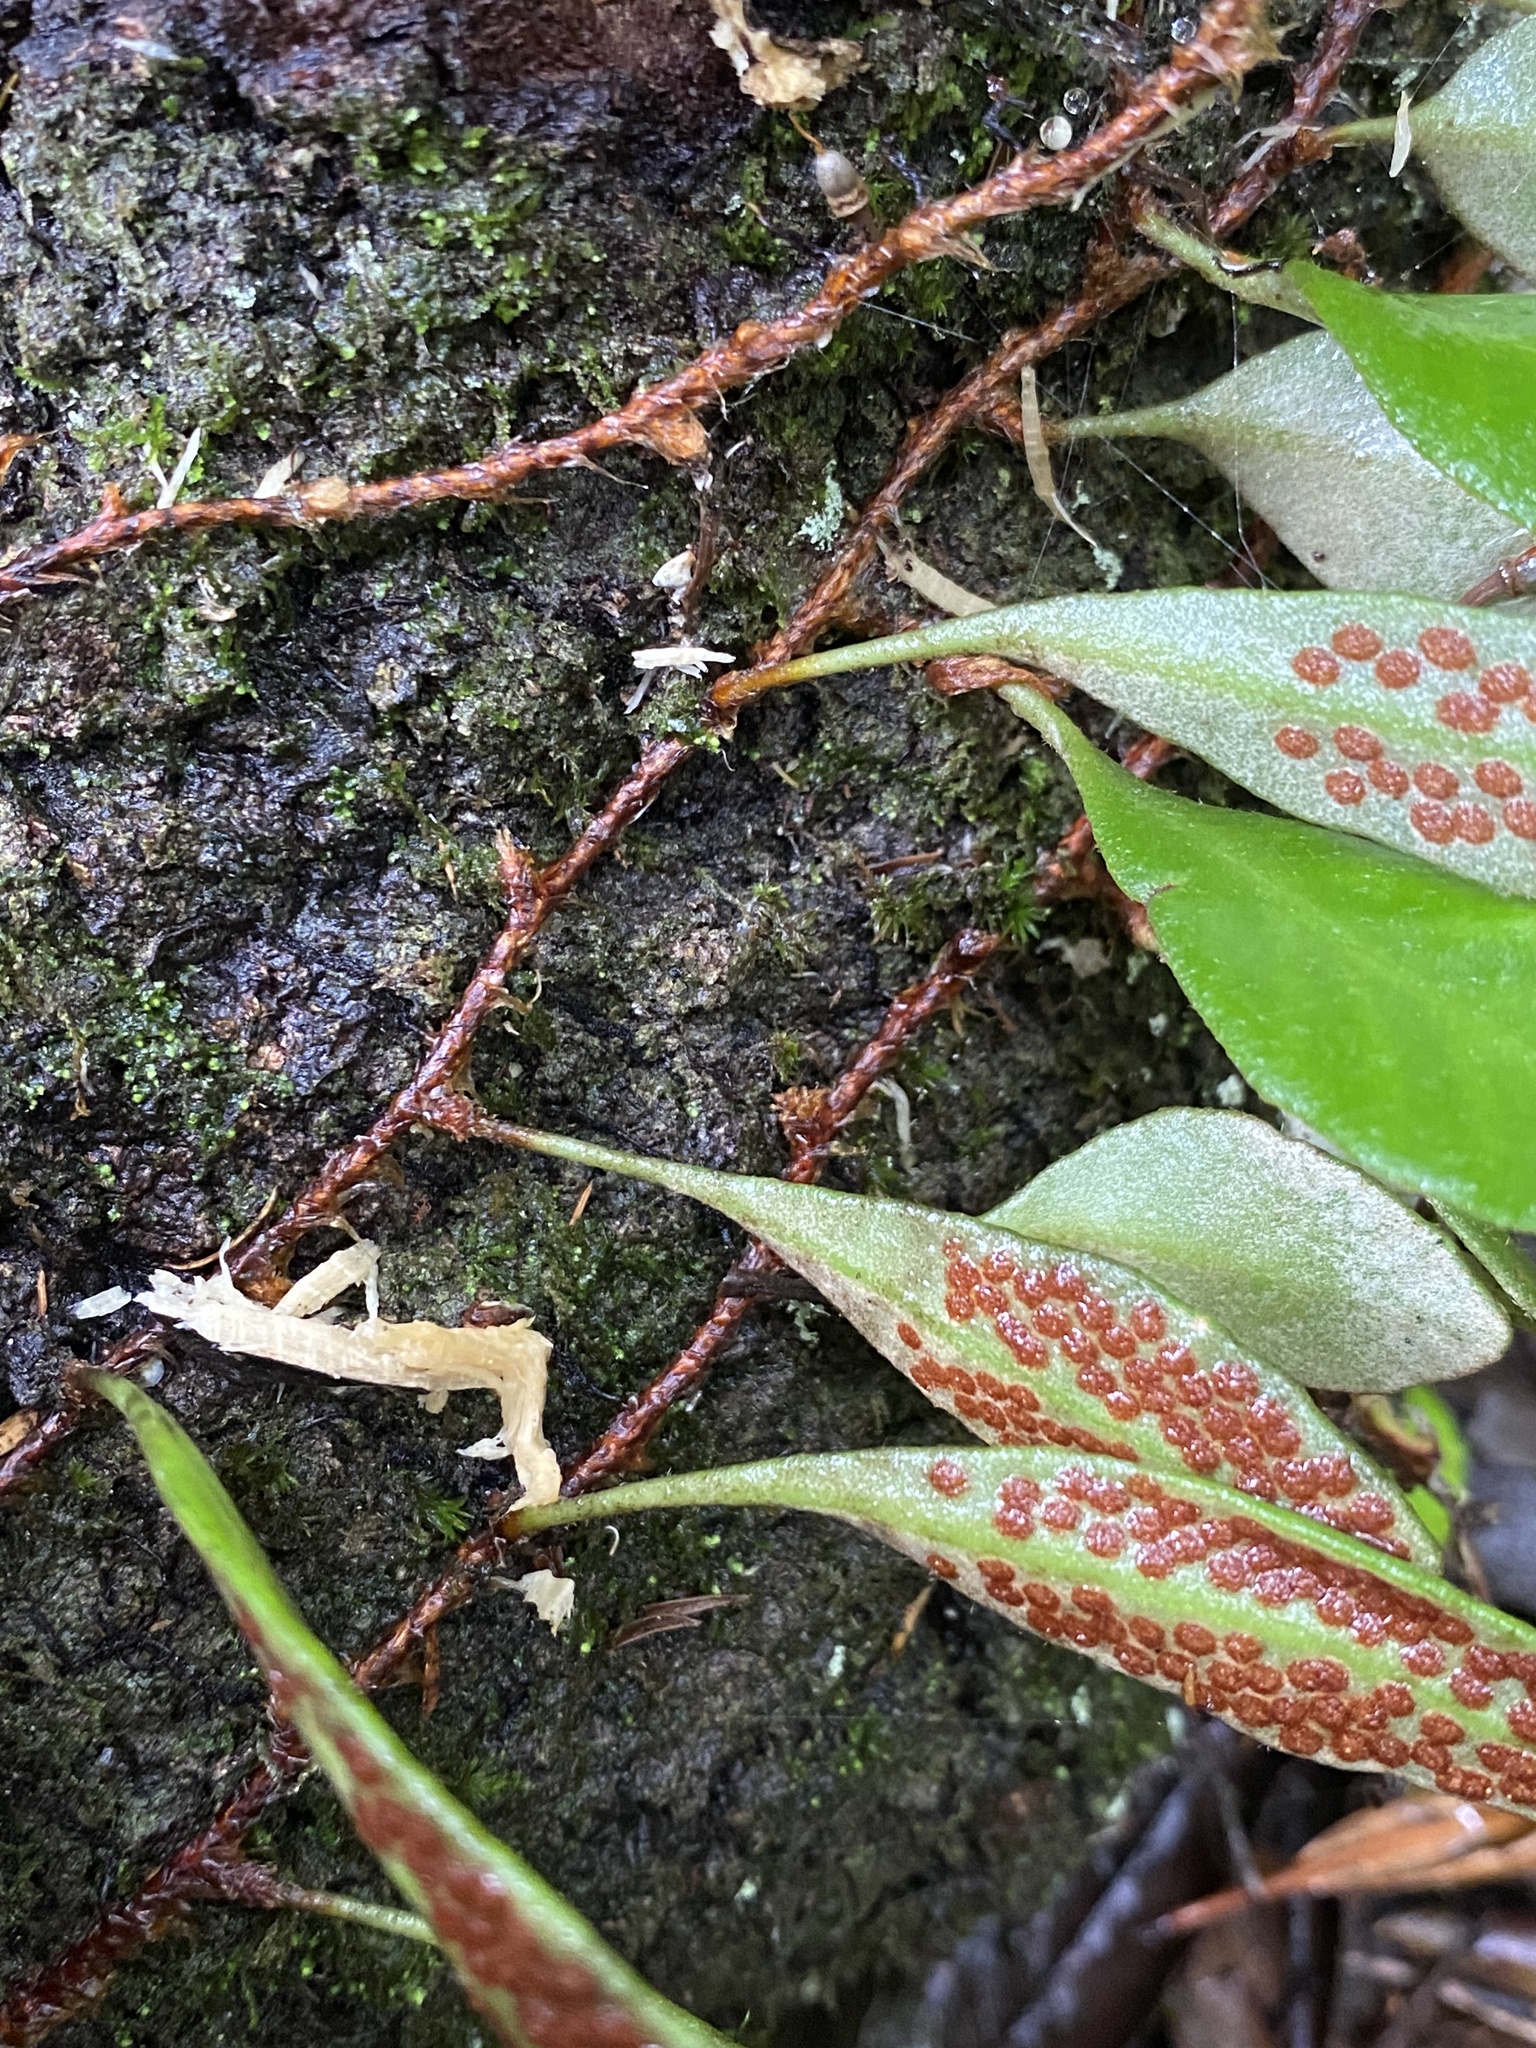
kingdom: Plantae
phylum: Tracheophyta
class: Polypodiopsida
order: Polypodiales
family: Polypodiaceae
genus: Pyrrosia
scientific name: Pyrrosia eleagnifolia
